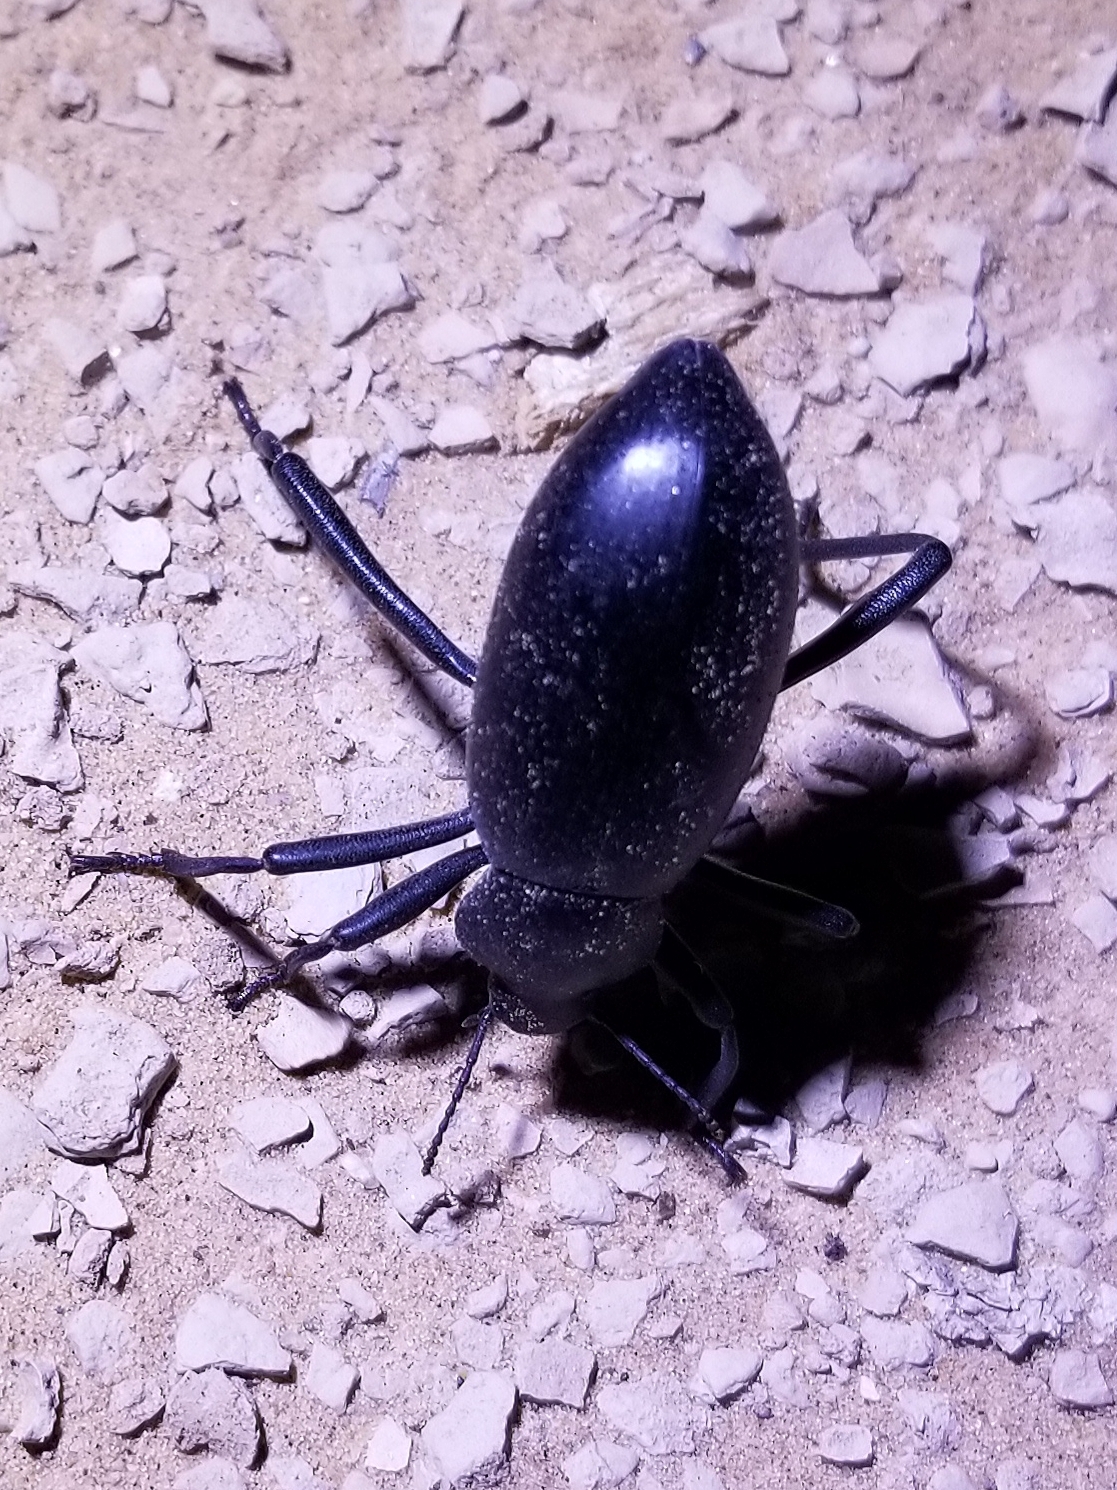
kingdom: Animalia
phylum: Arthropoda
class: Insecta
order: Coleoptera
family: Tenebrionidae
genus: Eleodes
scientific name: Eleodes armata
